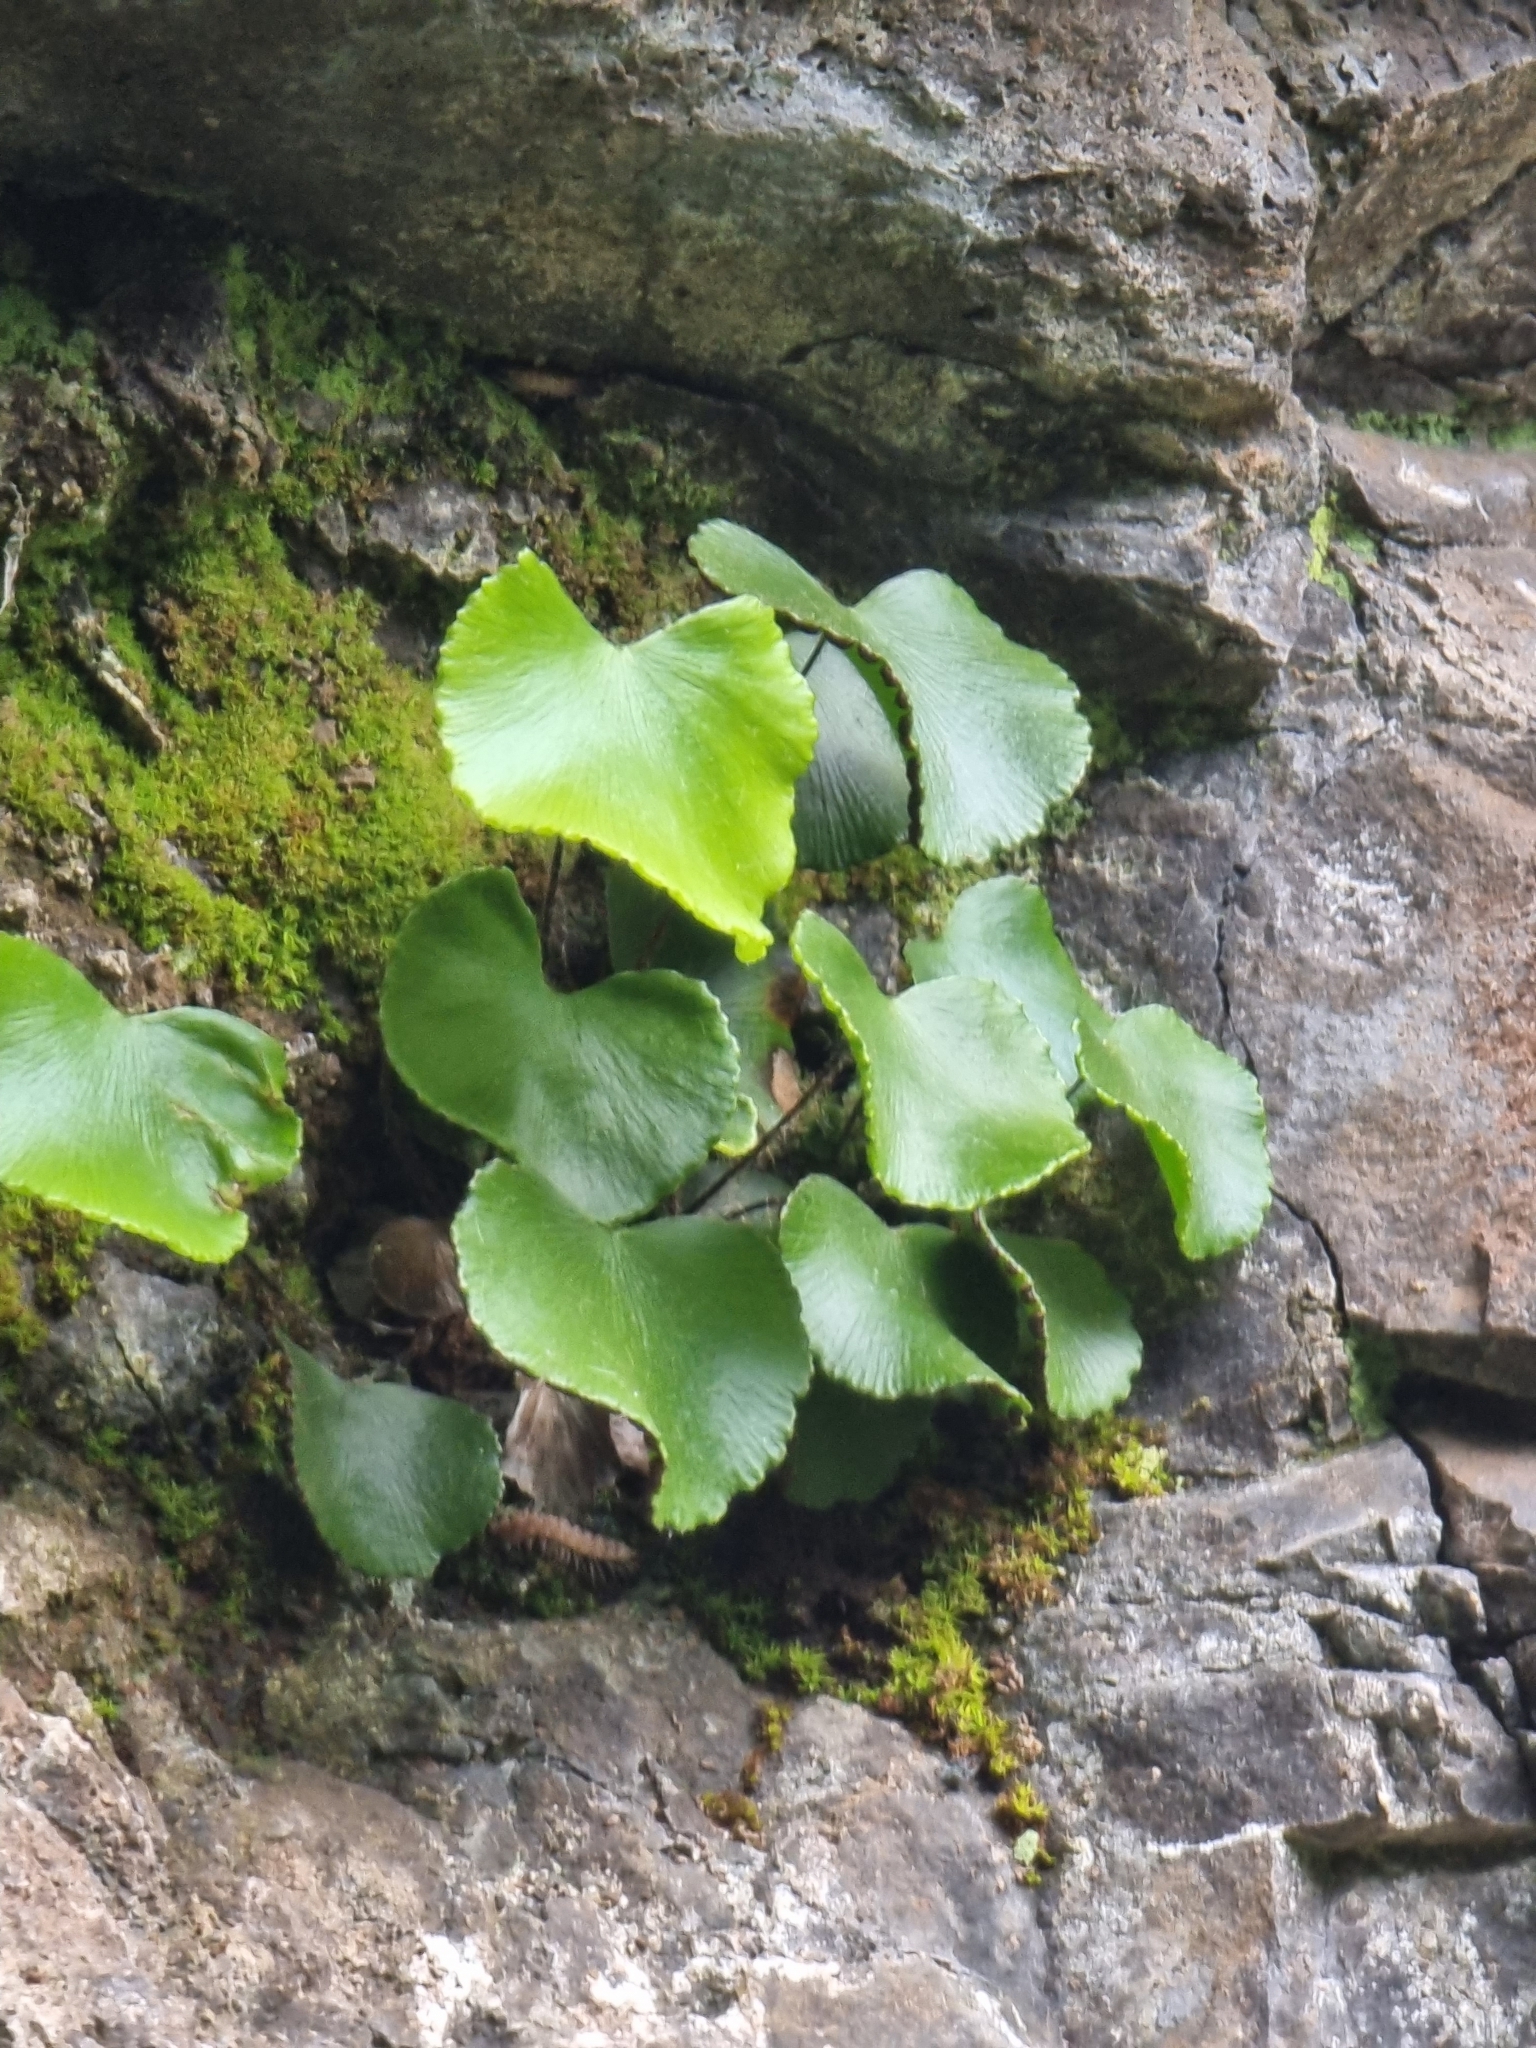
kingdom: Plantae
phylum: Tracheophyta
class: Polypodiopsida
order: Polypodiales
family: Pteridaceae
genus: Adiantum
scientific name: Adiantum reniforme
